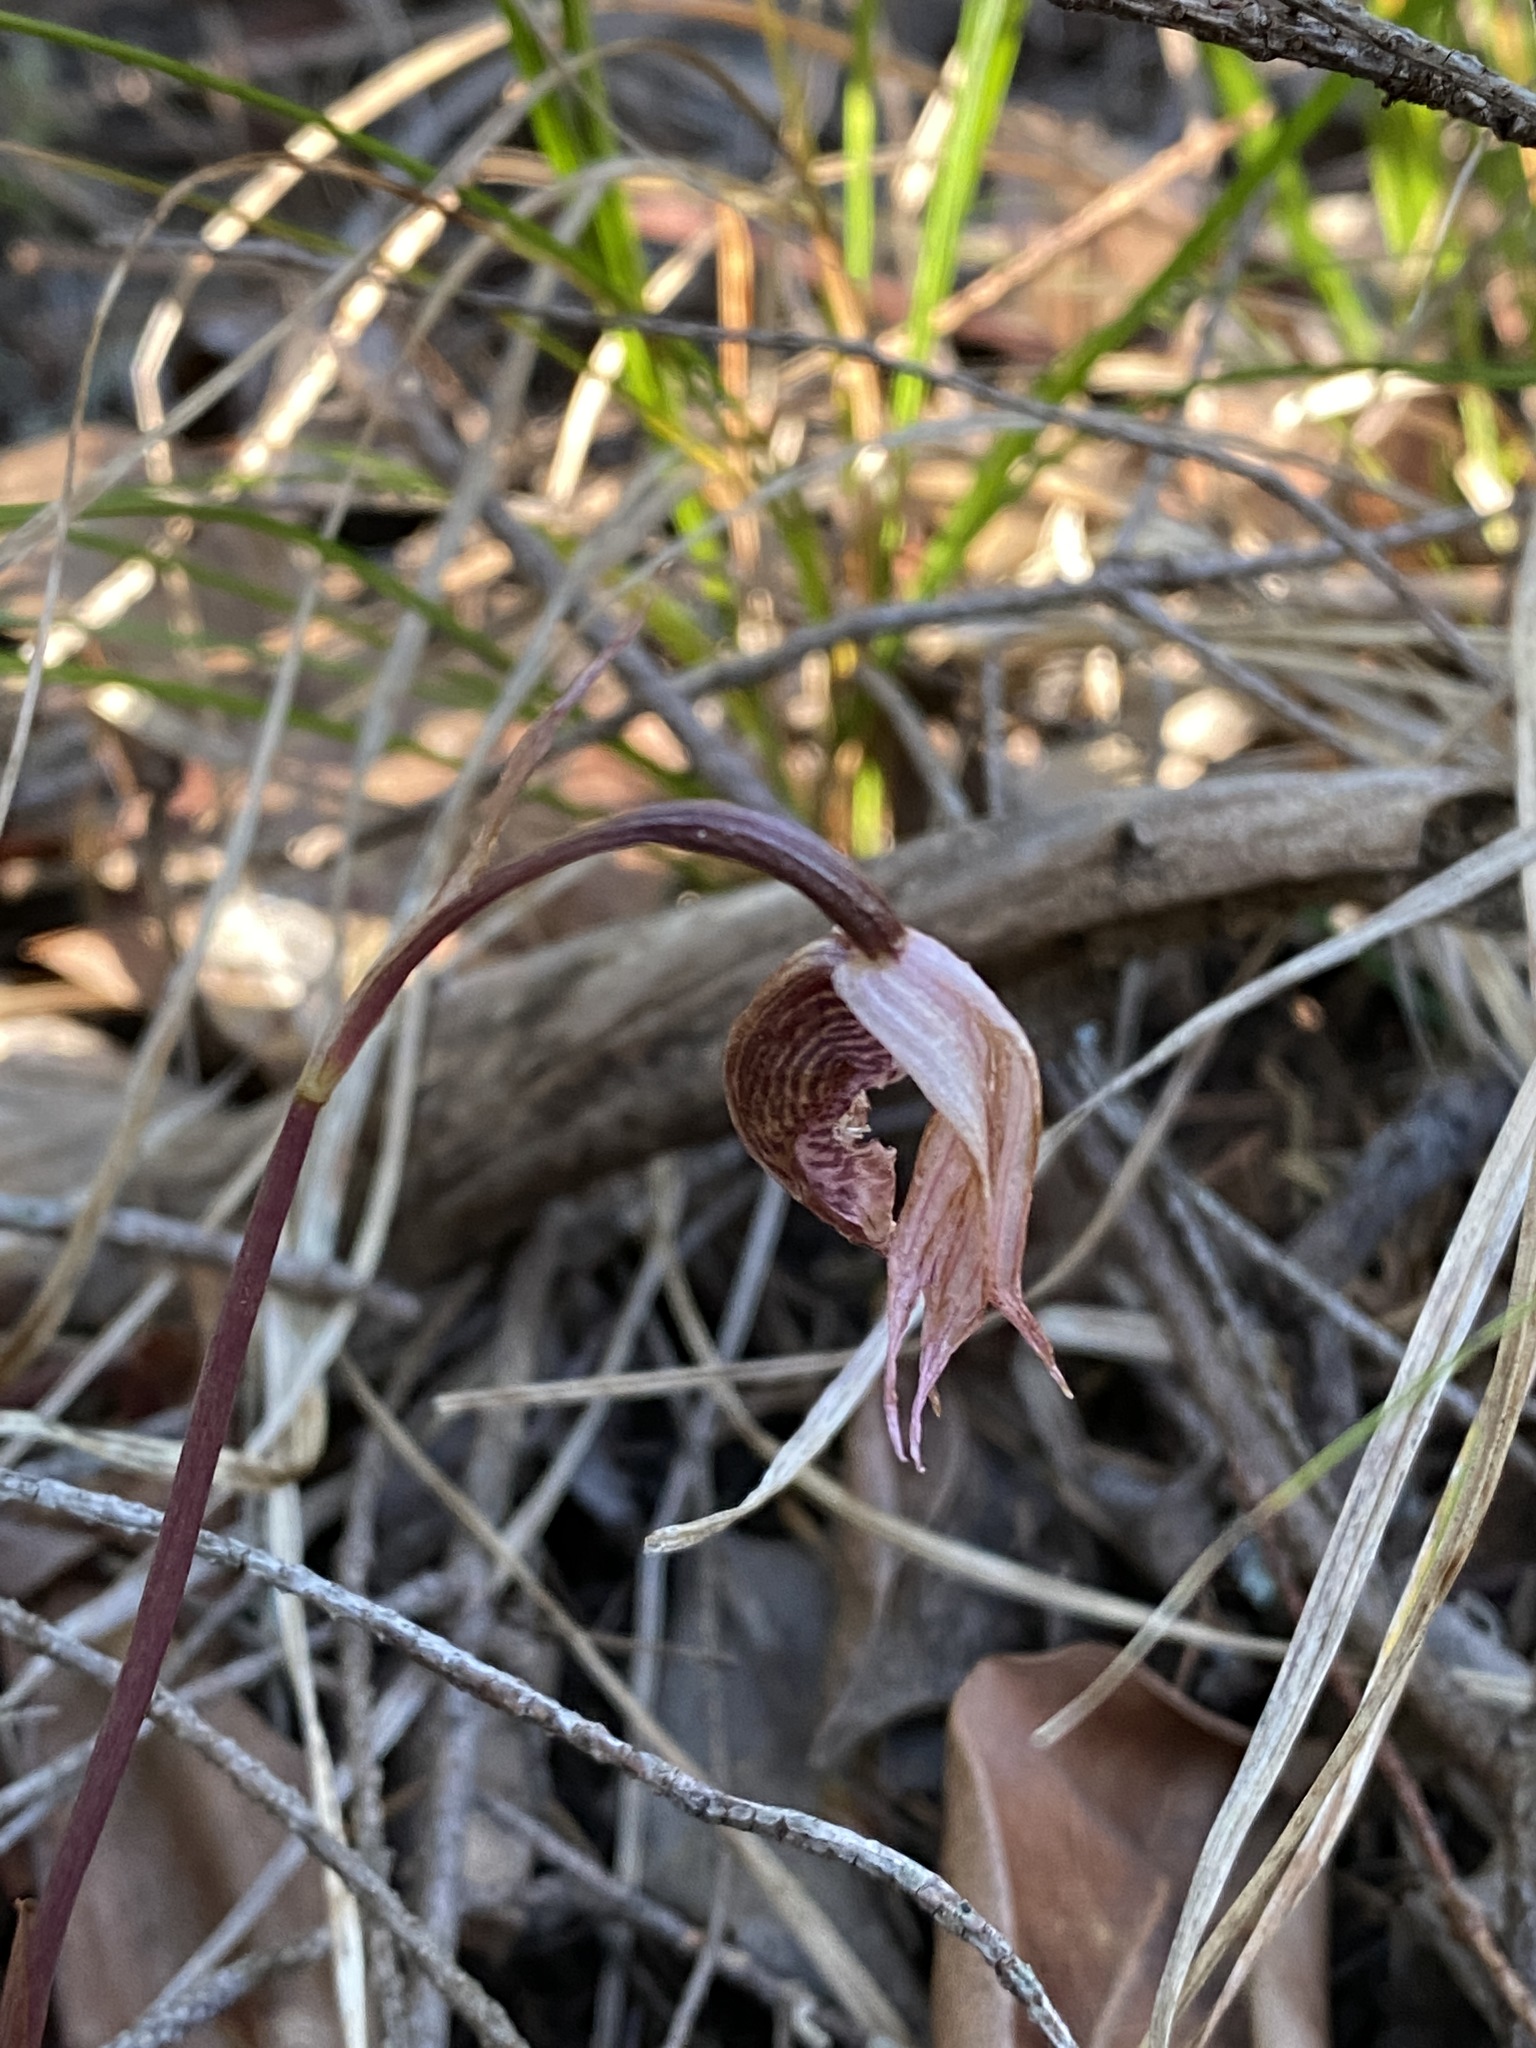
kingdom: Plantae
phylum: Tracheophyta
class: Liliopsida
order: Asparagales
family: Orchidaceae
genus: Calypso
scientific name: Calypso bulbosa
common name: Calypso
